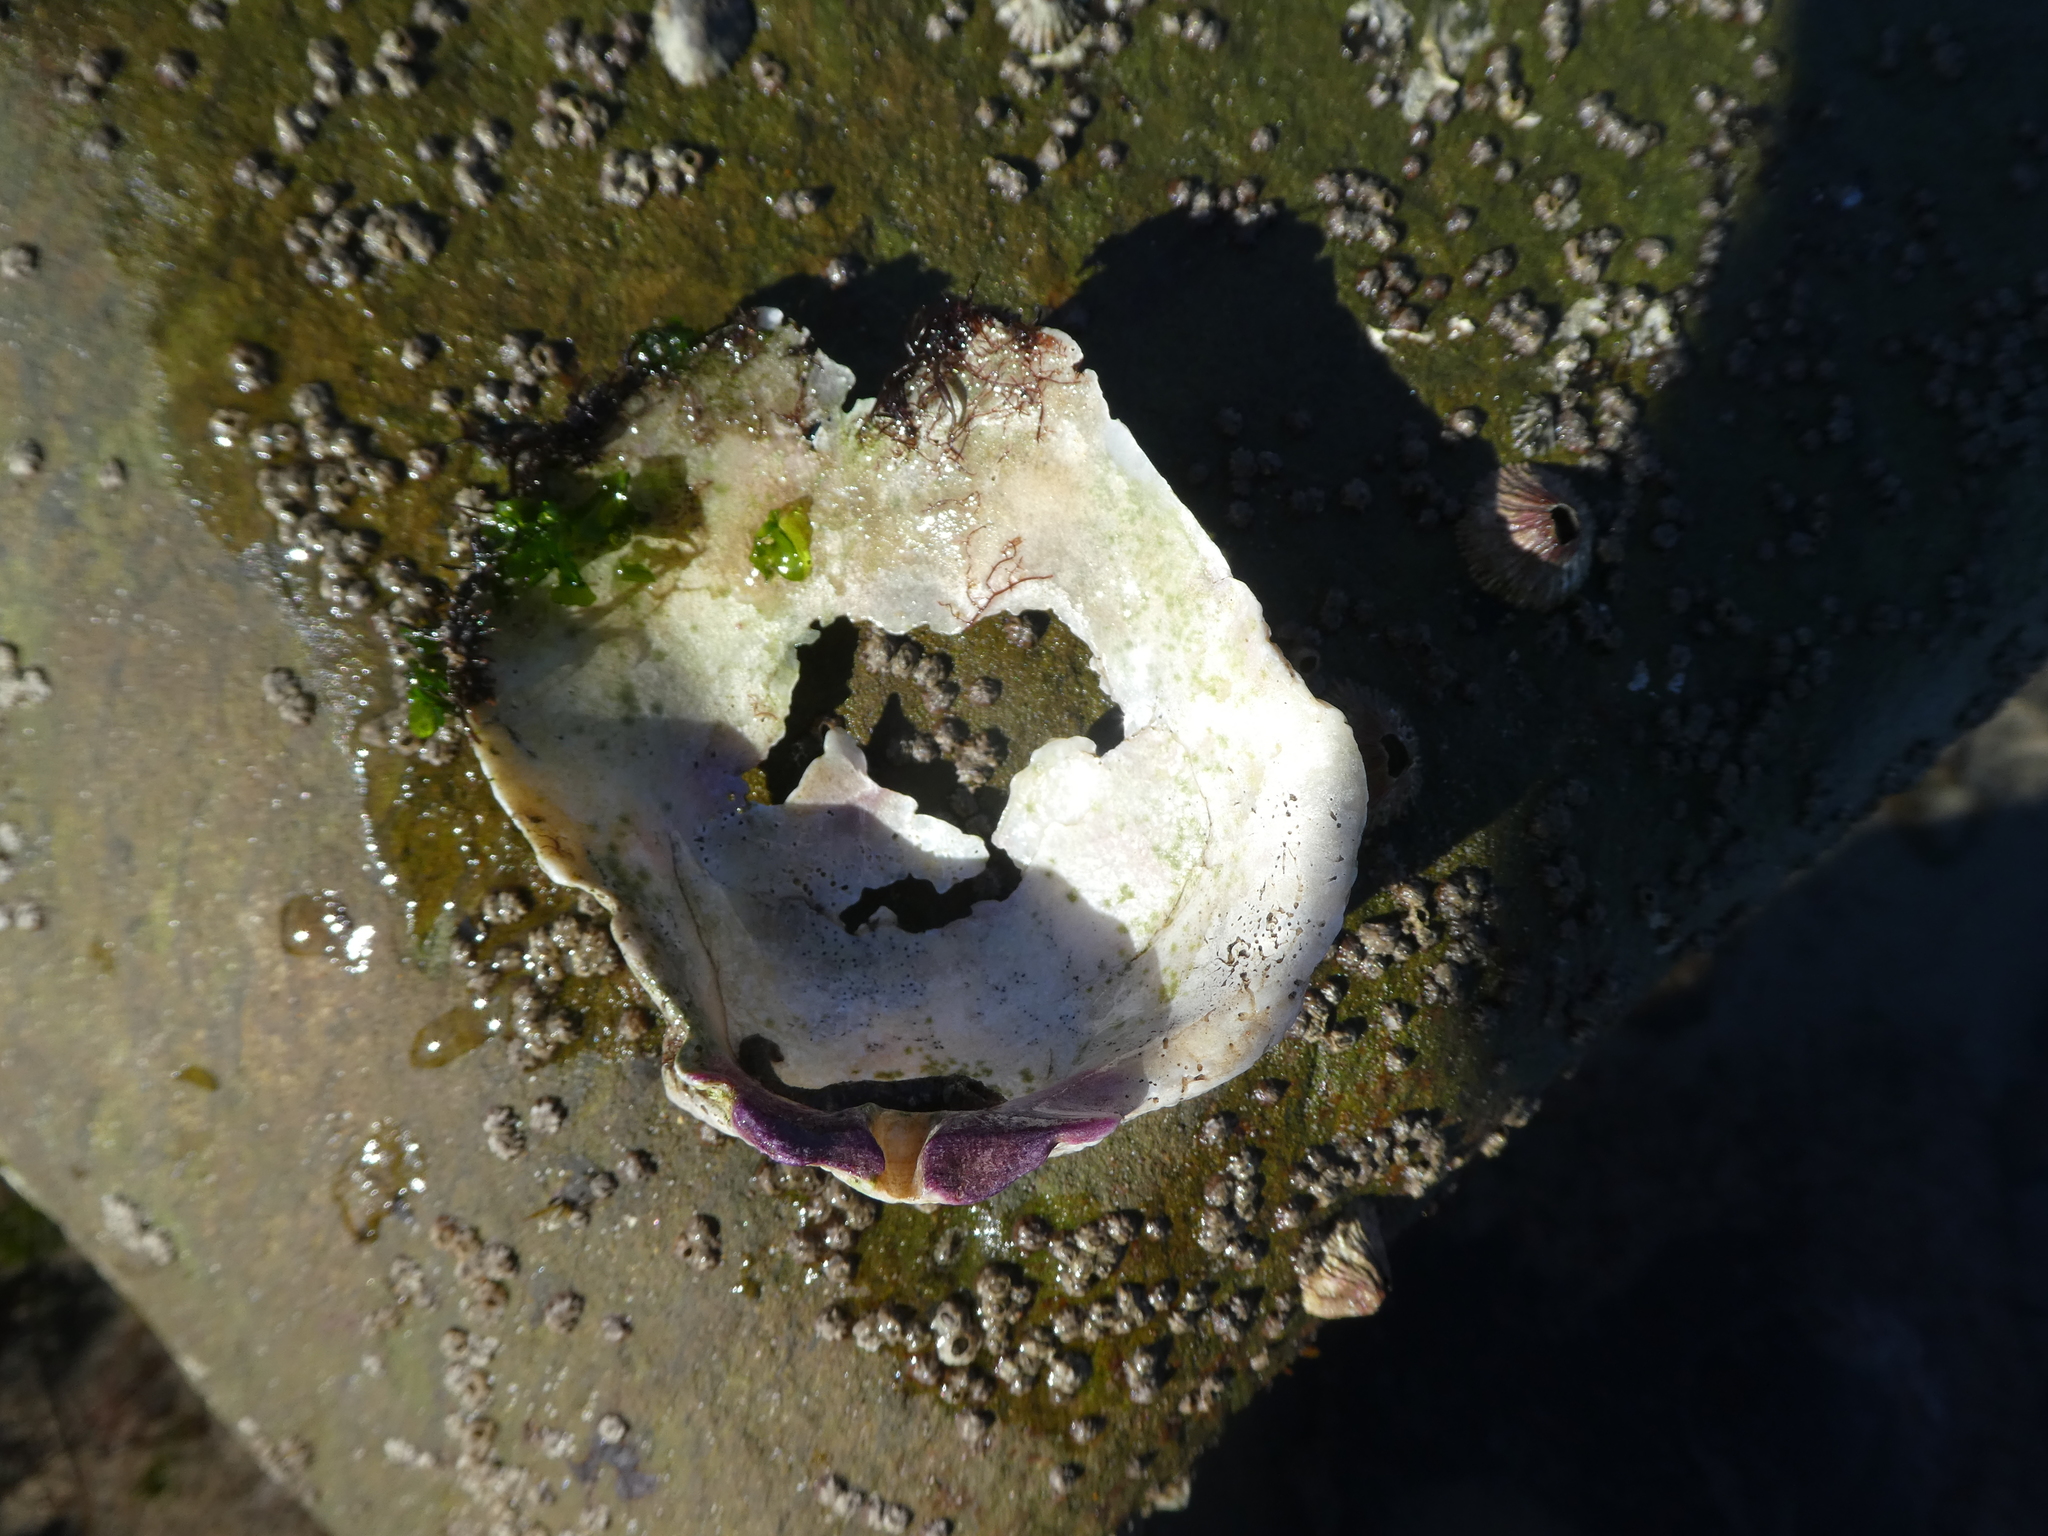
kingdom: Animalia
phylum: Mollusca
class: Bivalvia
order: Pectinida
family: Pectinidae
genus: Crassadoma
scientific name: Crassadoma gigantea
